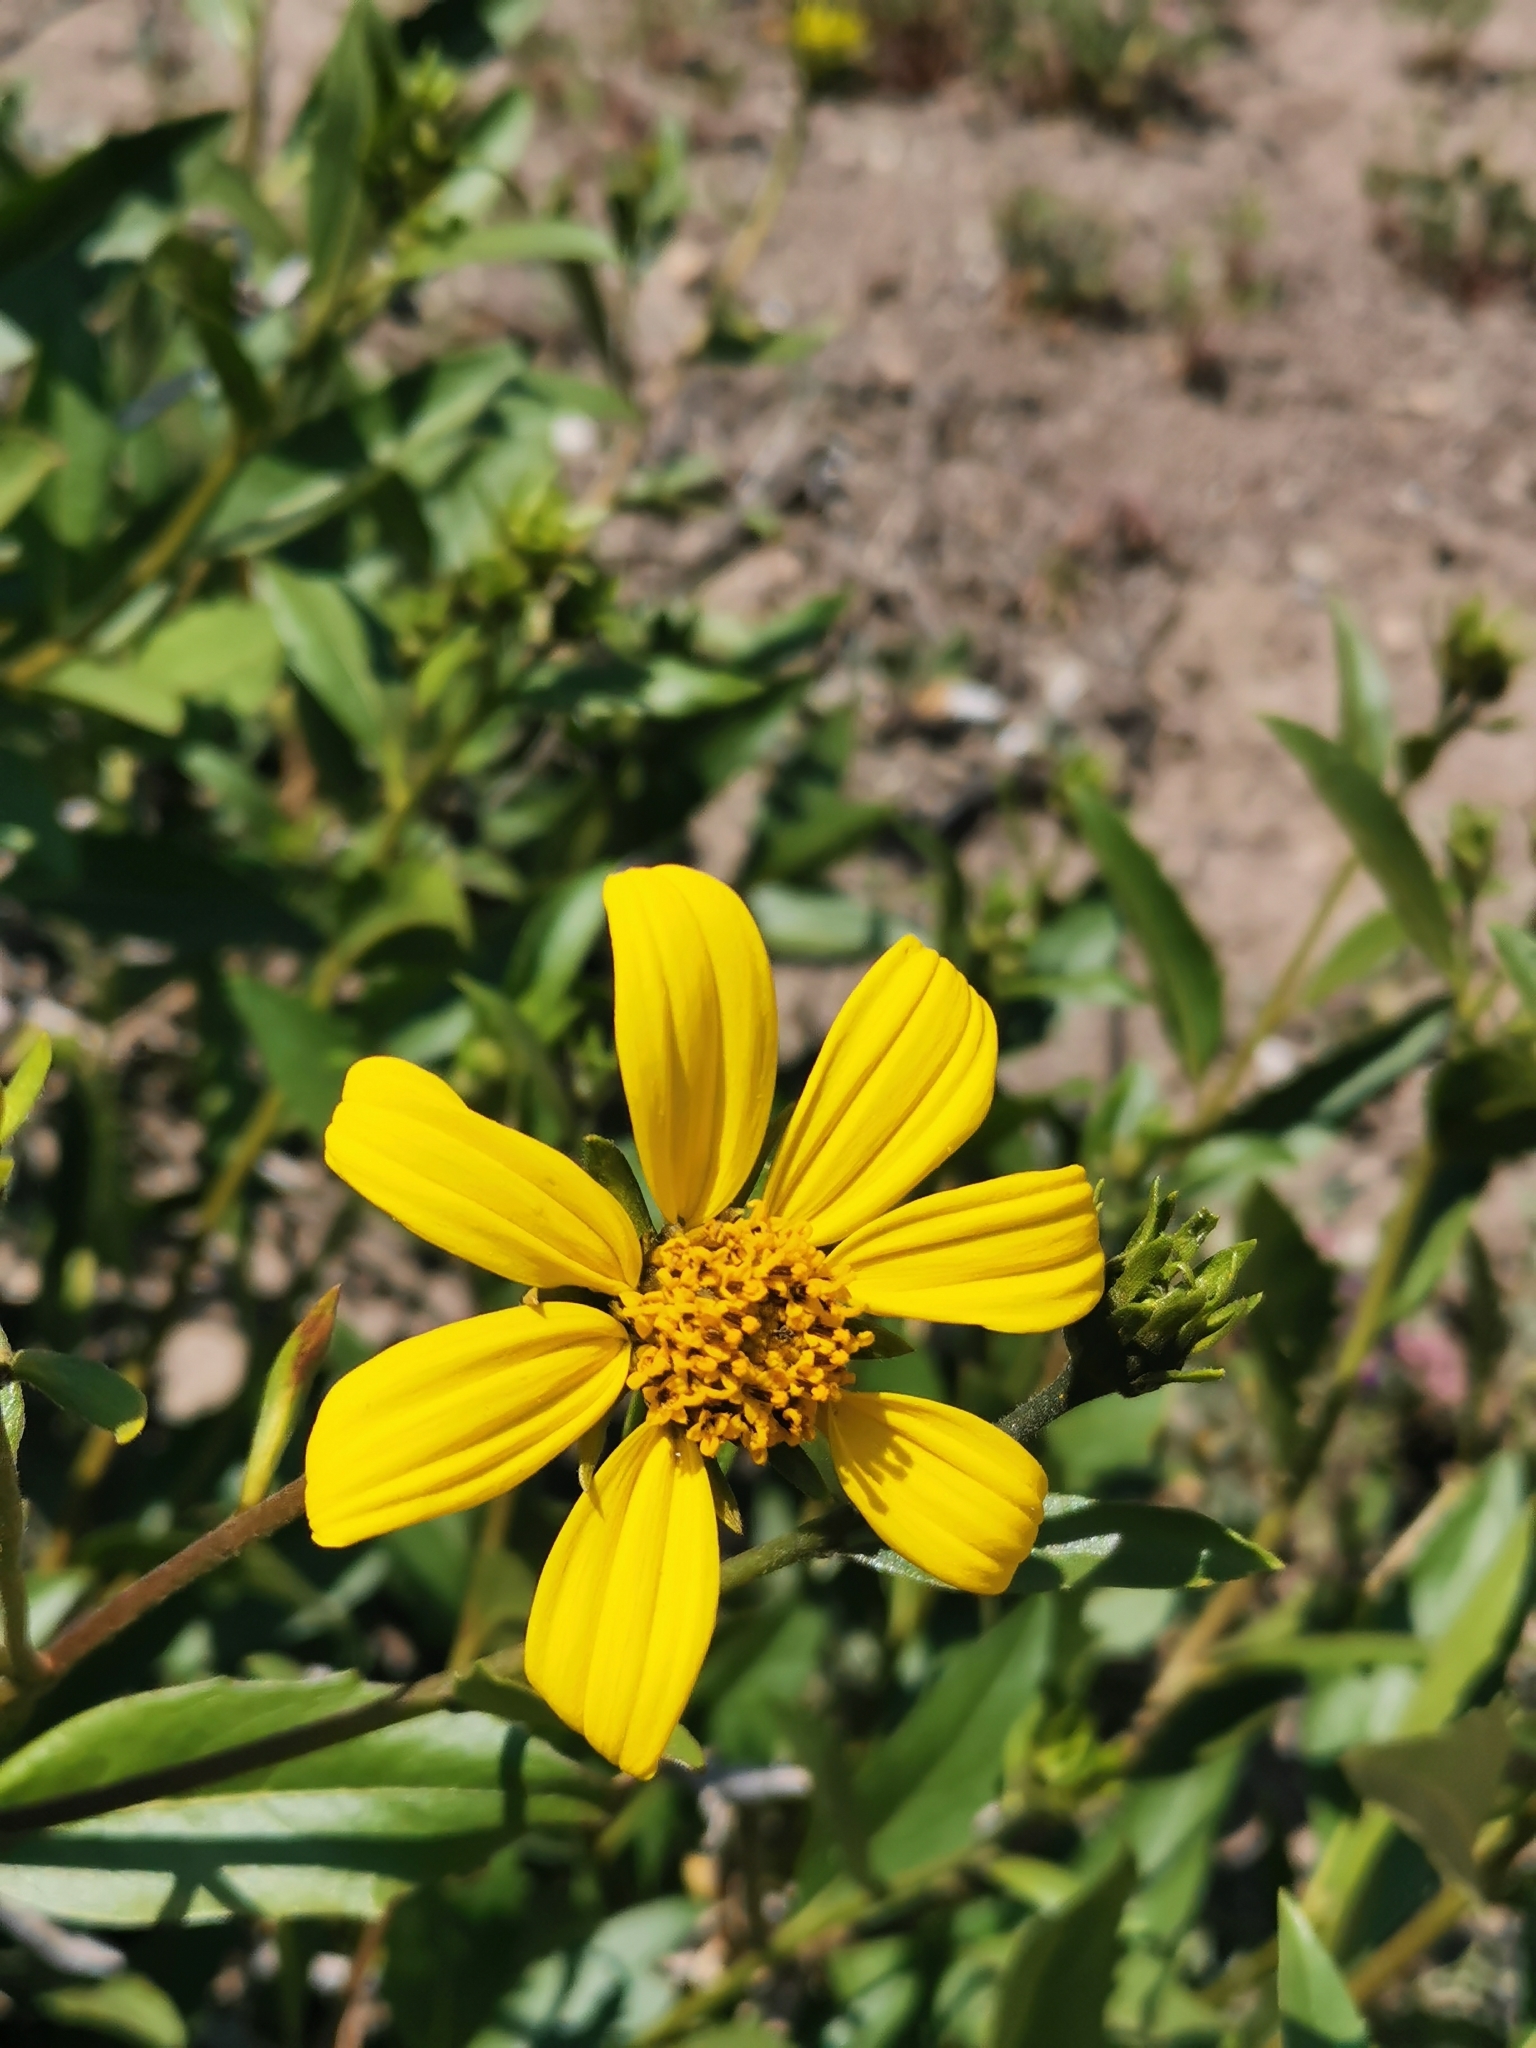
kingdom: Plantae
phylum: Tracheophyta
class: Magnoliopsida
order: Asterales
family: Asteraceae
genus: Flourensia
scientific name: Flourensia thurifera
